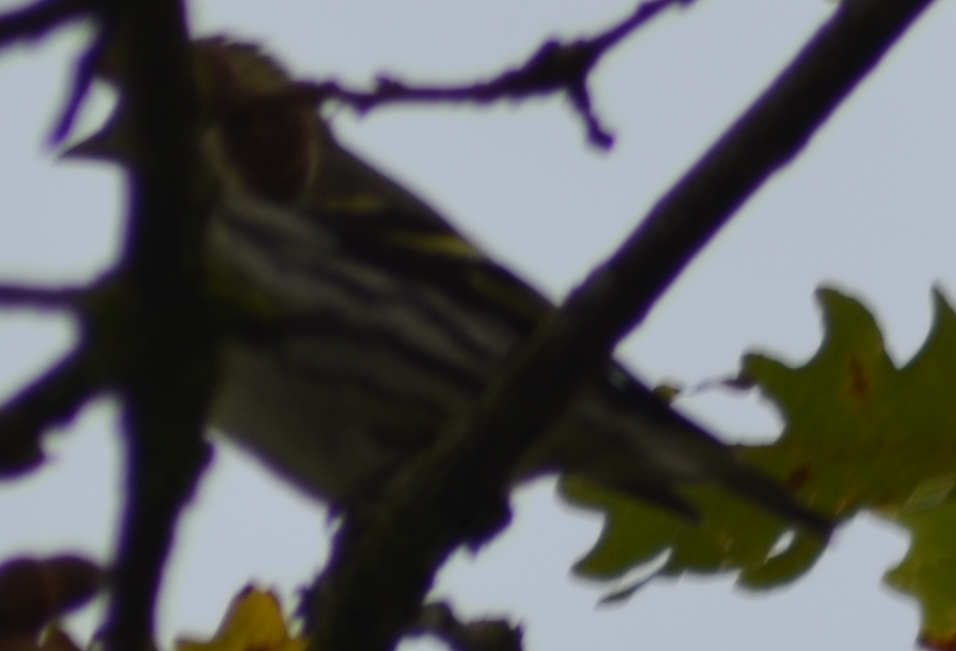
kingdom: Animalia
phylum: Chordata
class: Aves
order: Passeriformes
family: Fringillidae
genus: Spinus
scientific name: Spinus spinus
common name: Eurasian siskin
